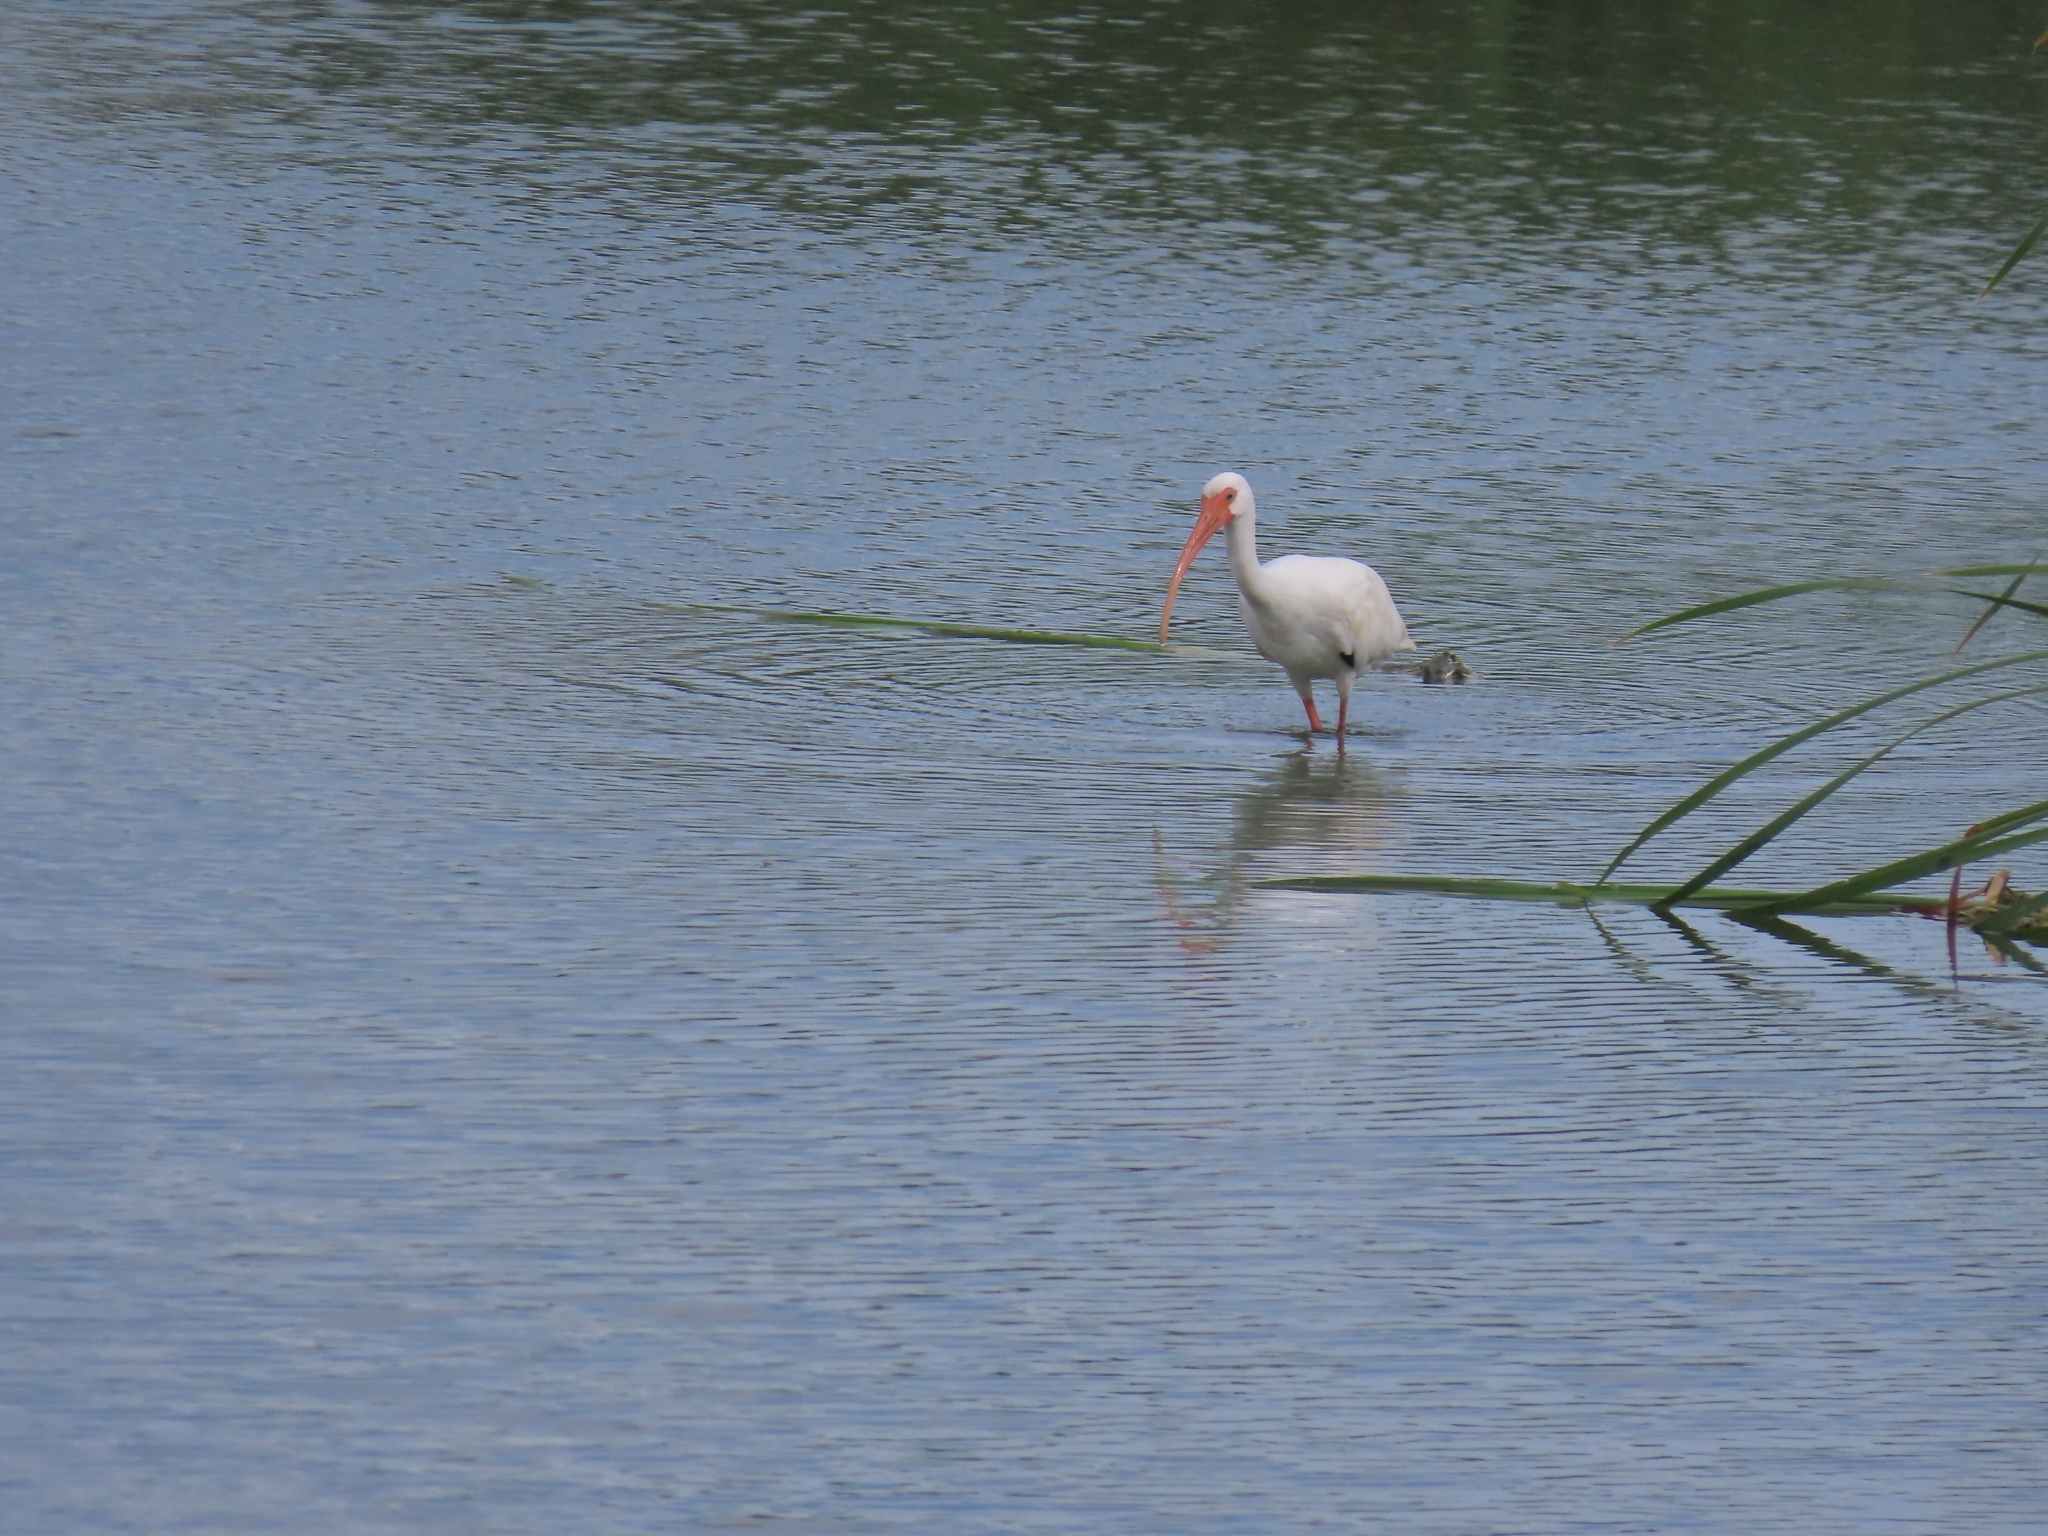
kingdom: Animalia
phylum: Chordata
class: Aves
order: Pelecaniformes
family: Threskiornithidae
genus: Eudocimus
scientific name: Eudocimus albus
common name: White ibis
